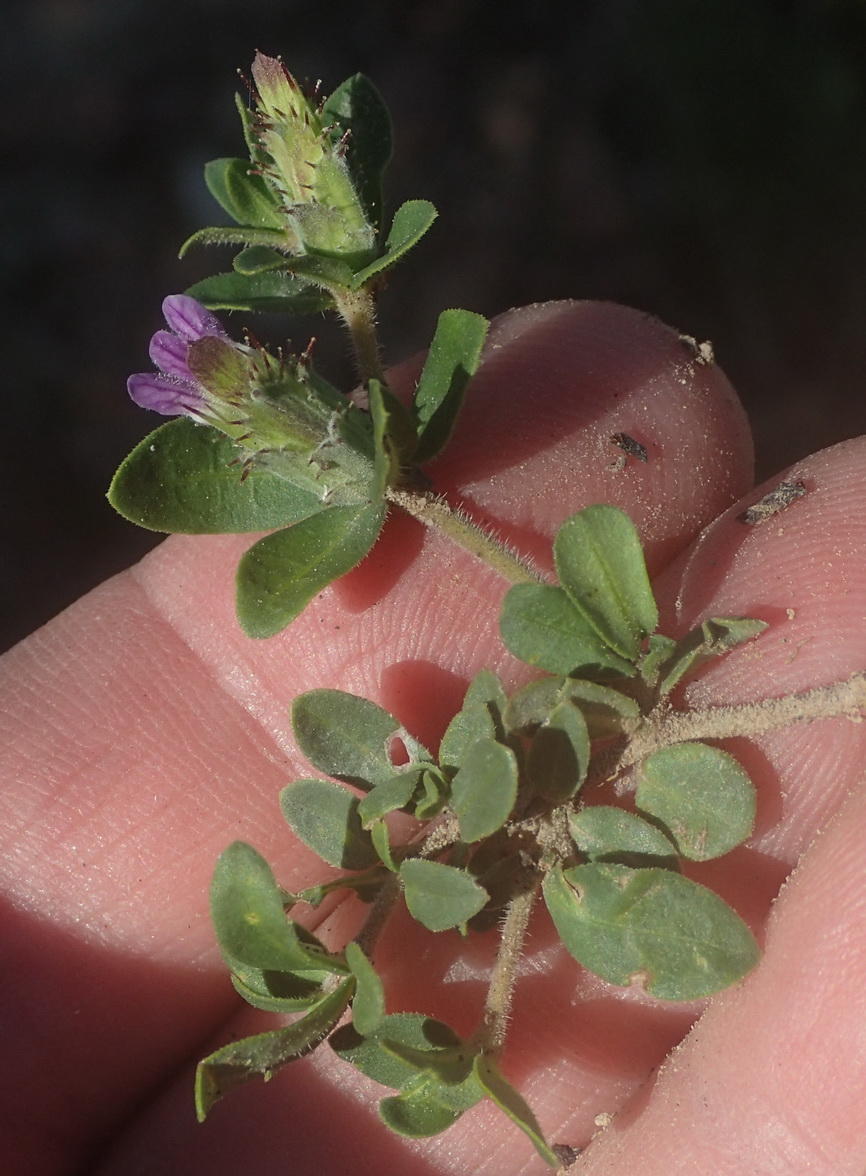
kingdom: Plantae
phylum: Tracheophyta
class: Magnoliopsida
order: Lamiales
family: Acanthaceae
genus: Blepharis
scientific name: Blepharis integrifolia
